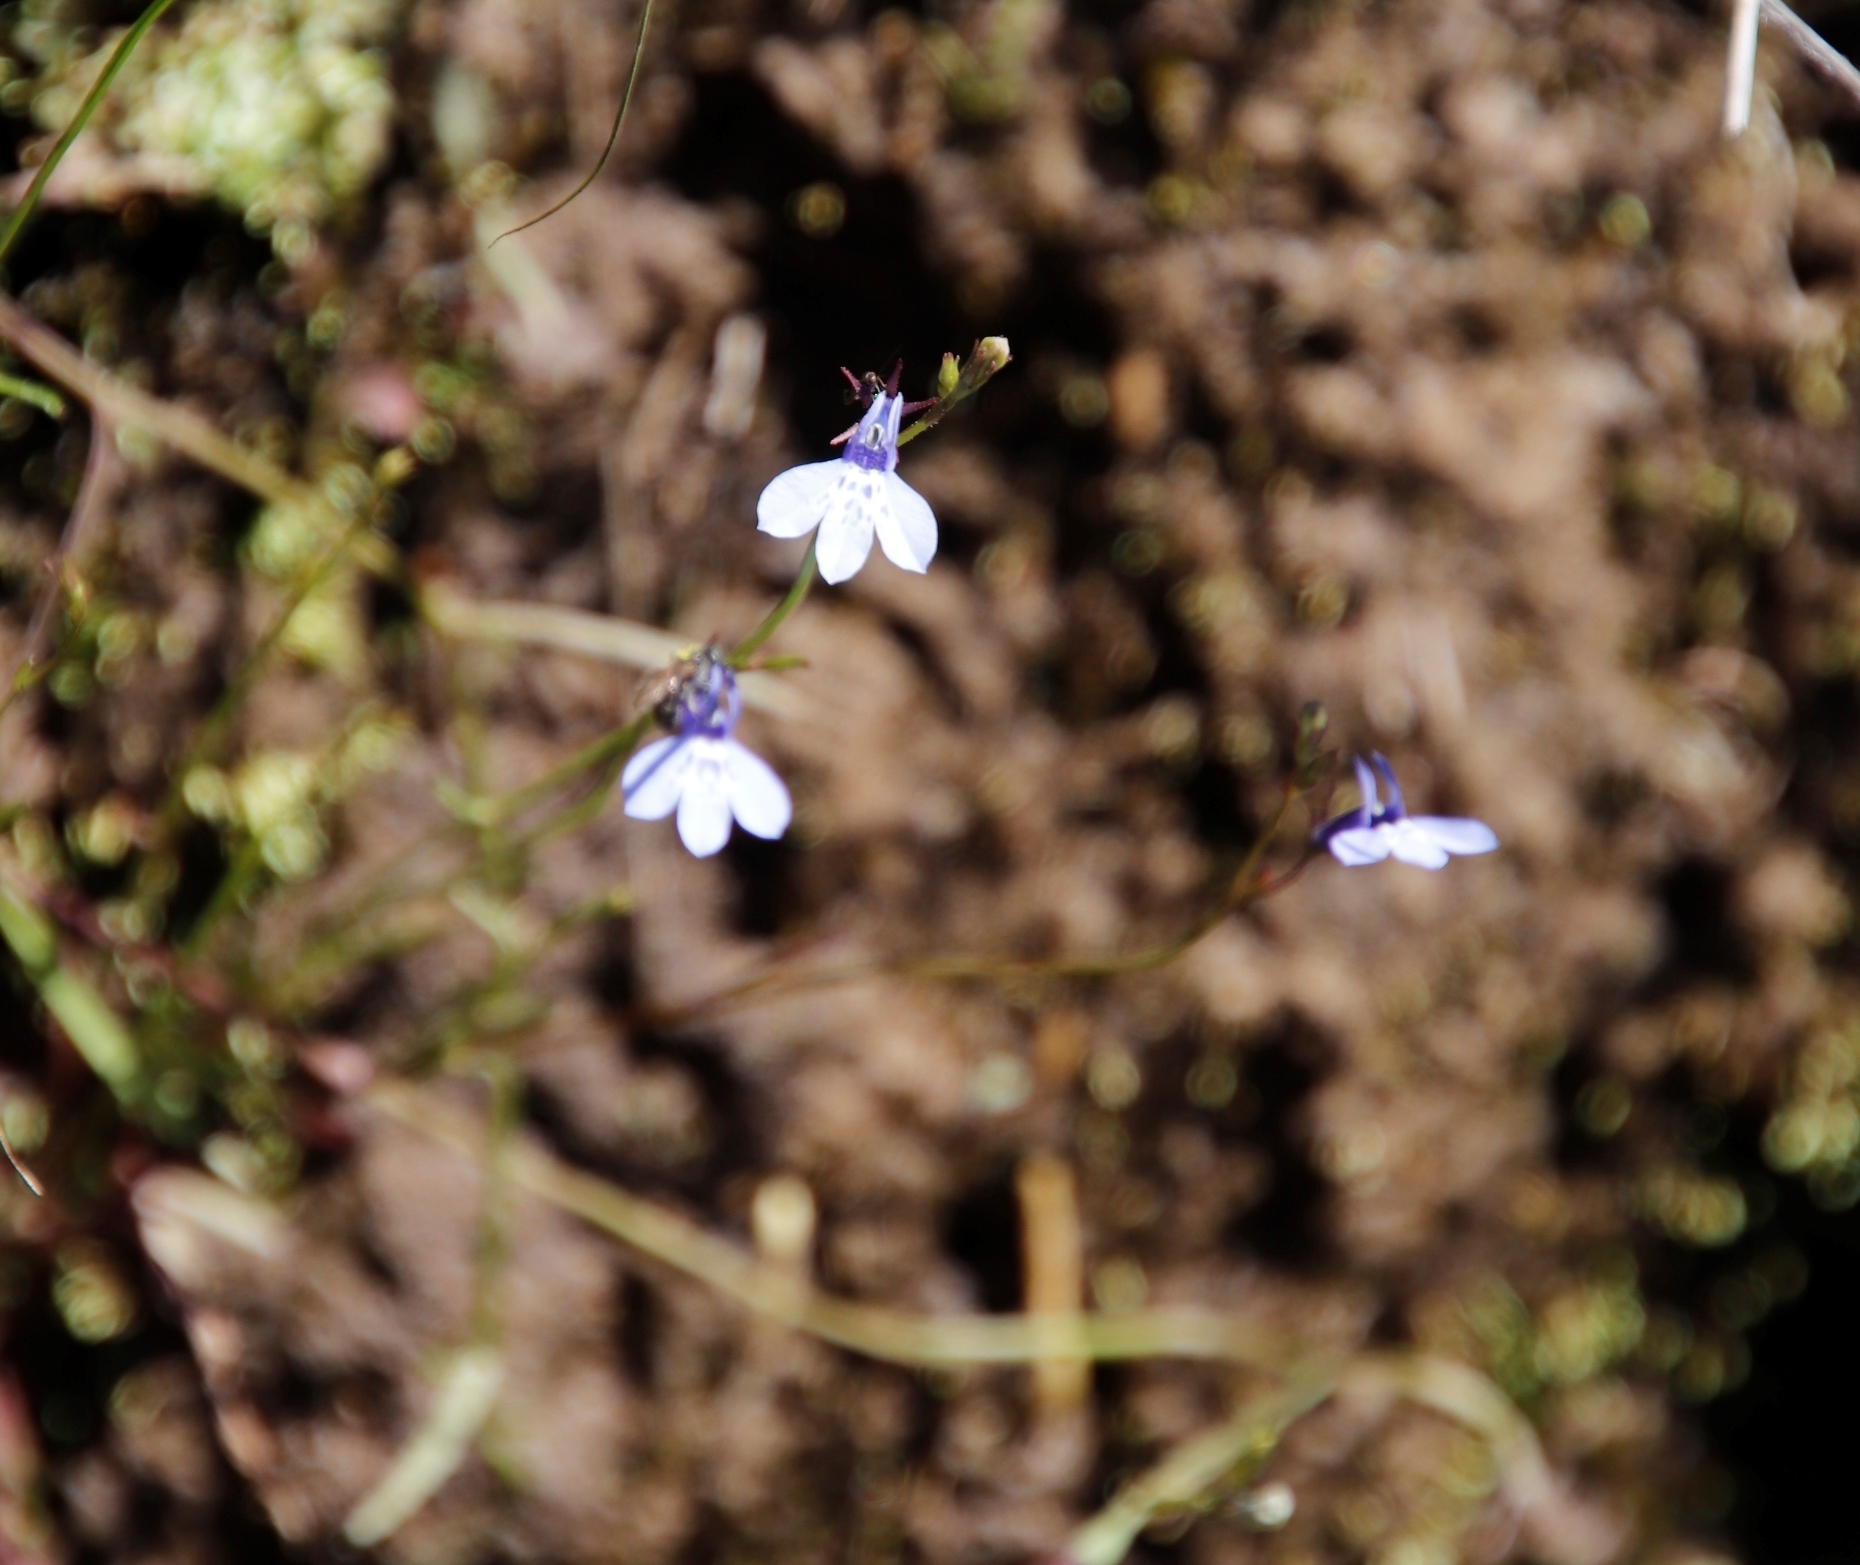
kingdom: Plantae
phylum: Tracheophyta
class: Magnoliopsida
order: Asterales
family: Campanulaceae
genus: Lobelia
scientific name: Lobelia flaccida
